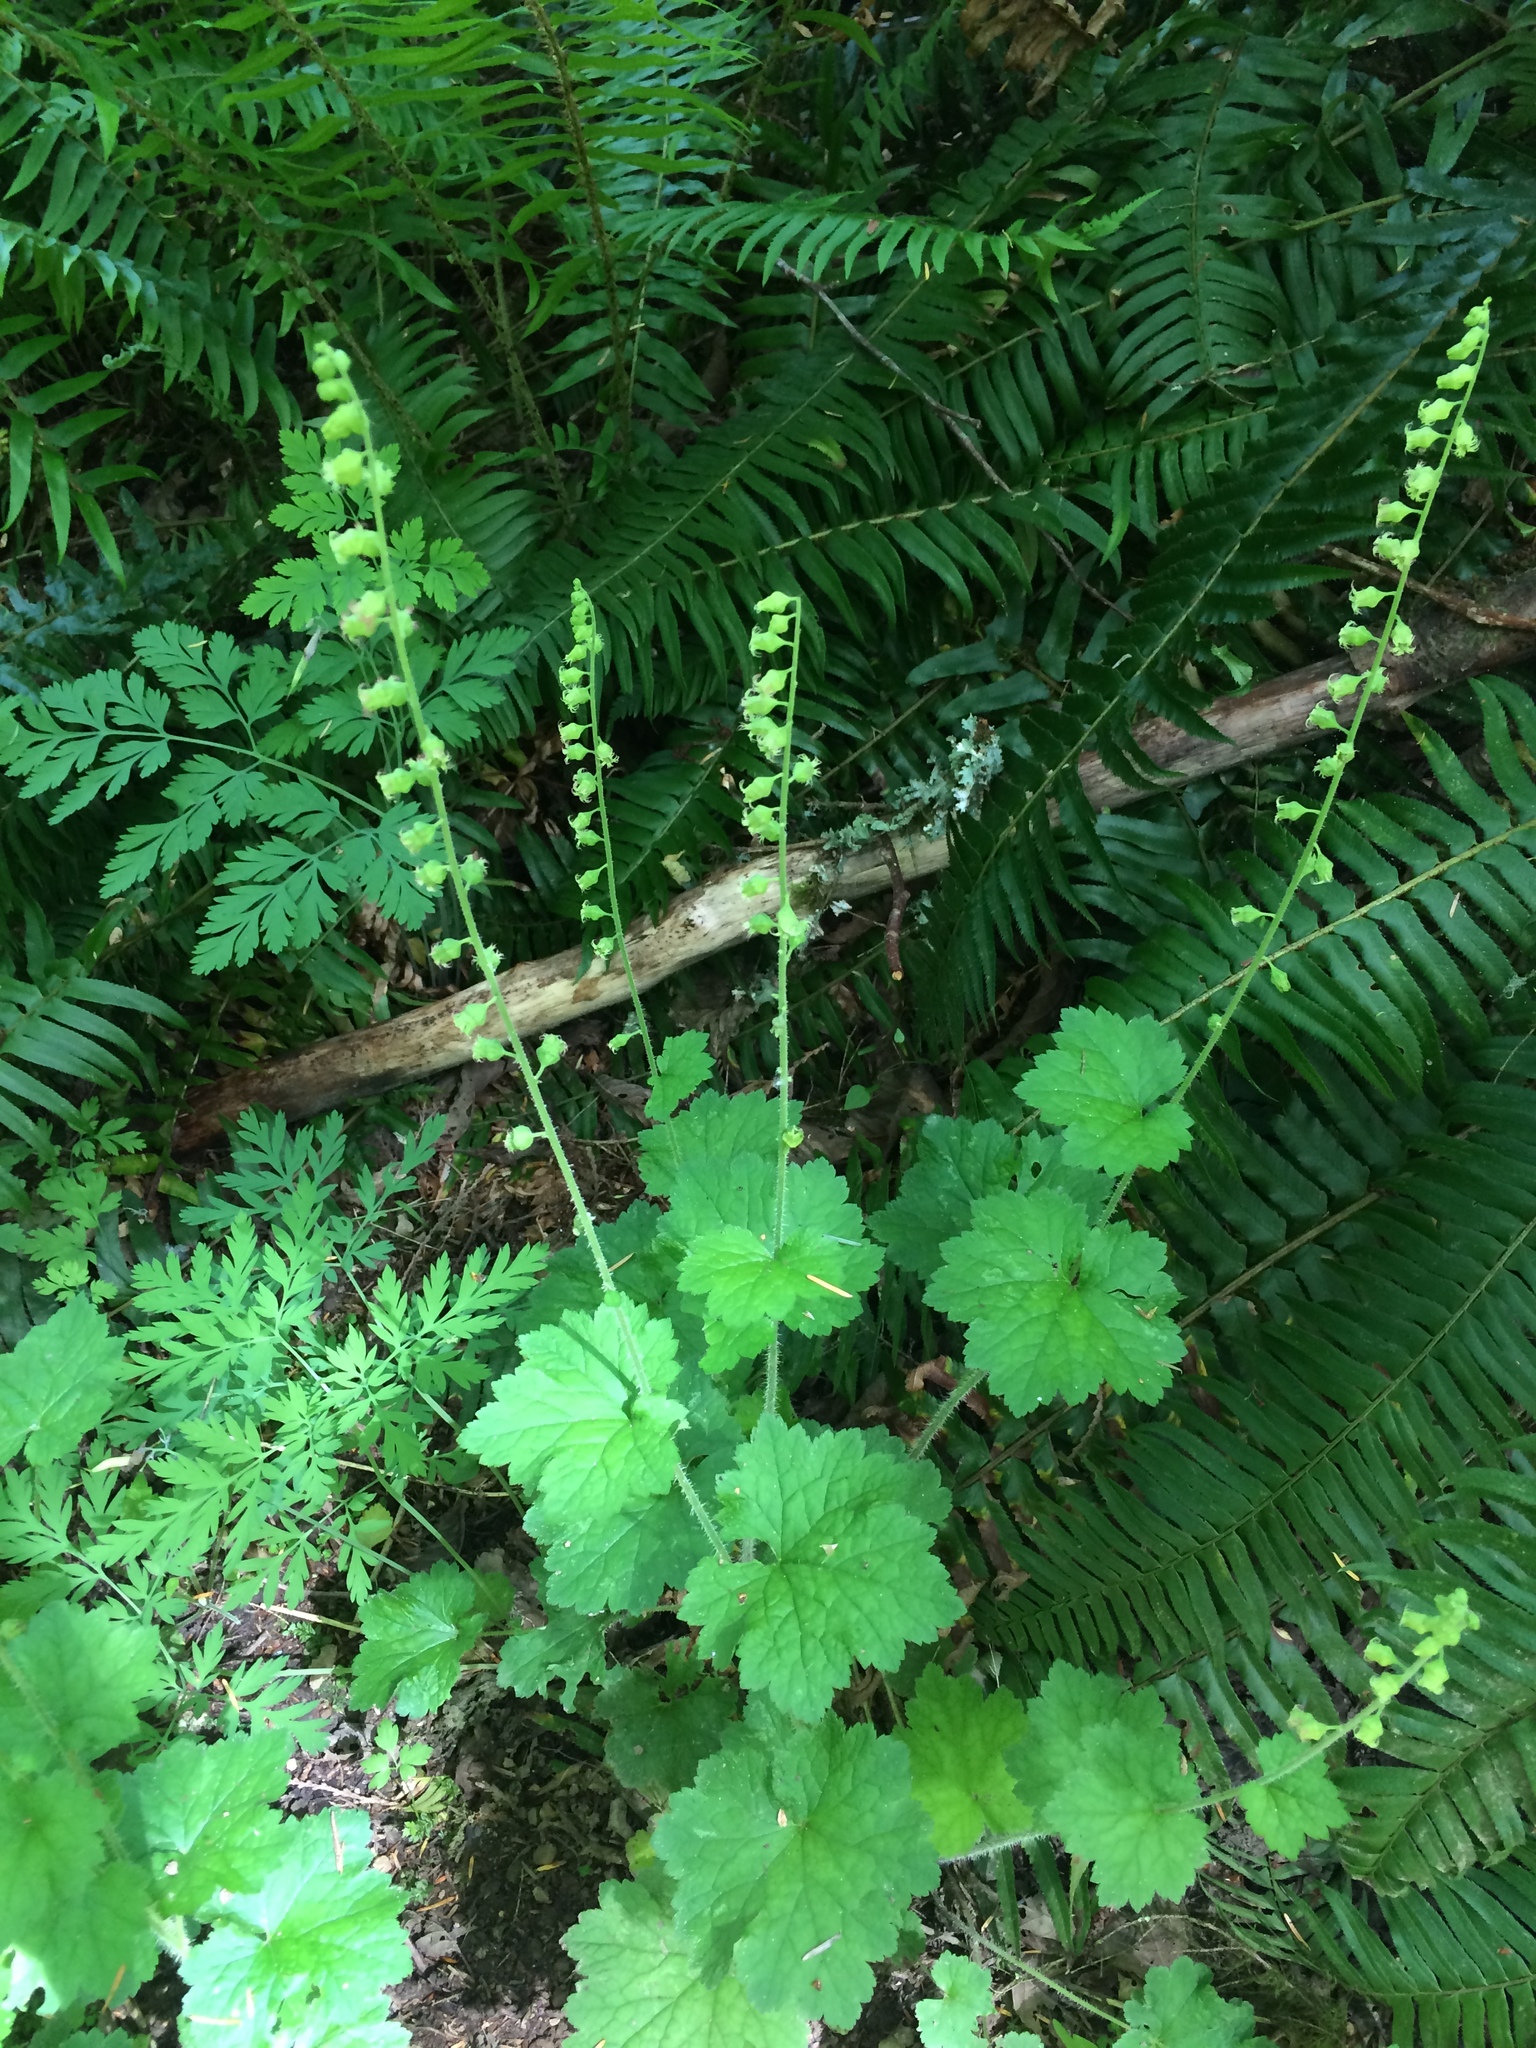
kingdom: Plantae
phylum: Tracheophyta
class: Magnoliopsida
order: Saxifragales
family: Saxifragaceae
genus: Tellima
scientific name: Tellima grandiflora
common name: Fringecups
